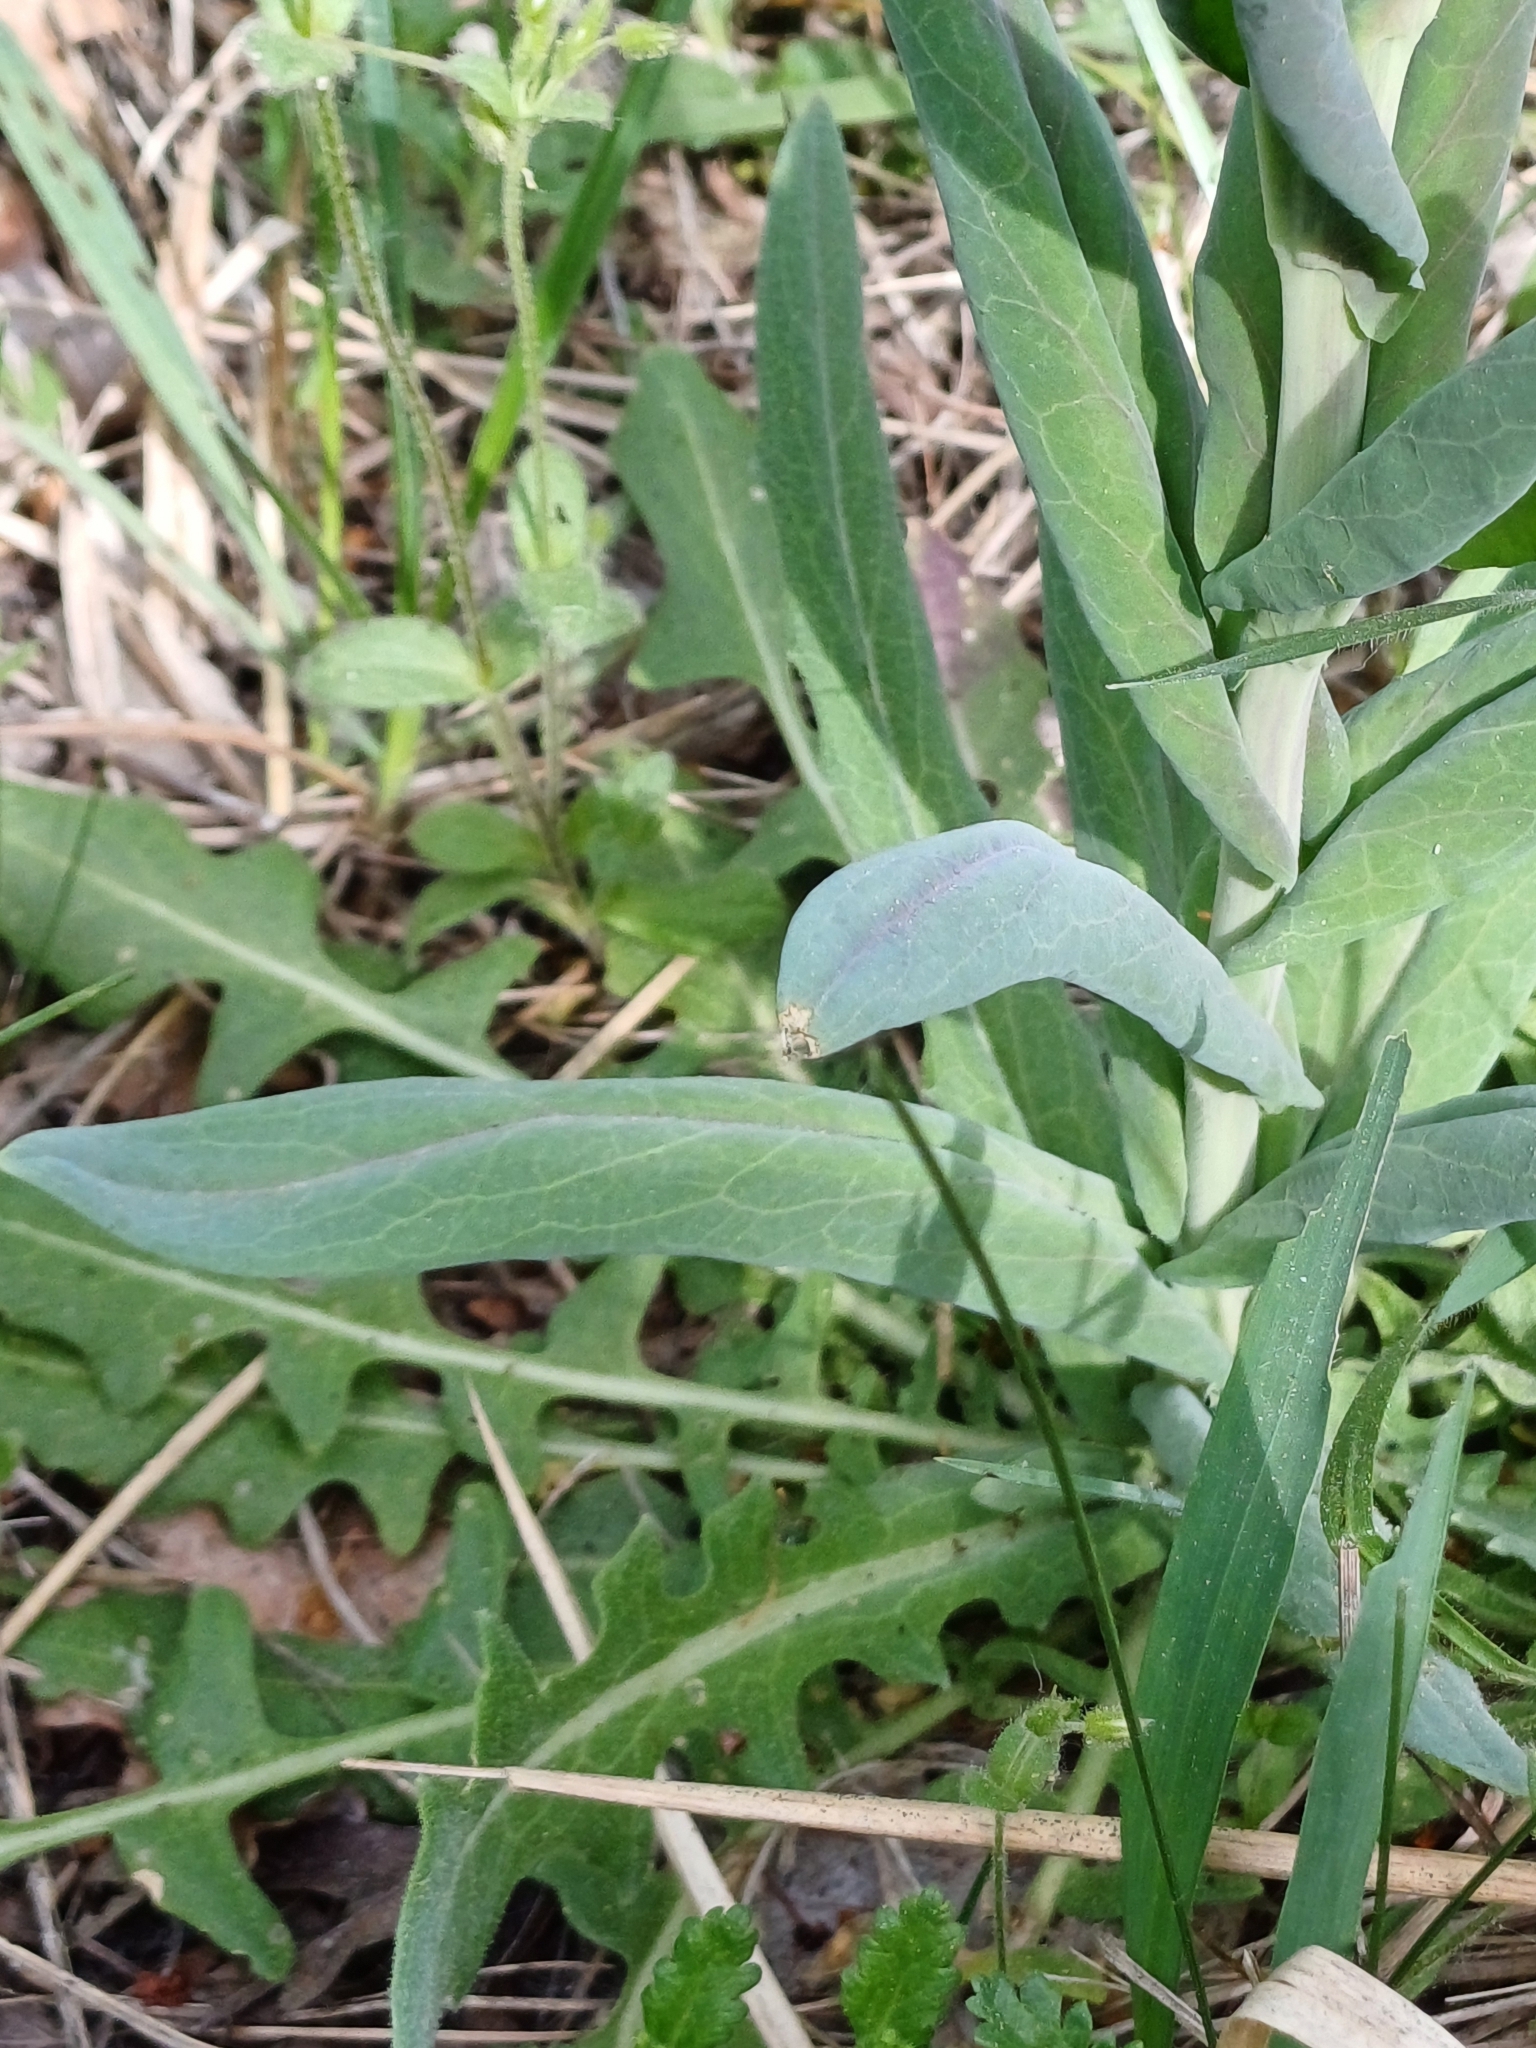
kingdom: Plantae
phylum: Tracheophyta
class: Magnoliopsida
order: Brassicales
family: Brassicaceae
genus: Turritis
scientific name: Turritis glabra
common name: Tower rockcress
